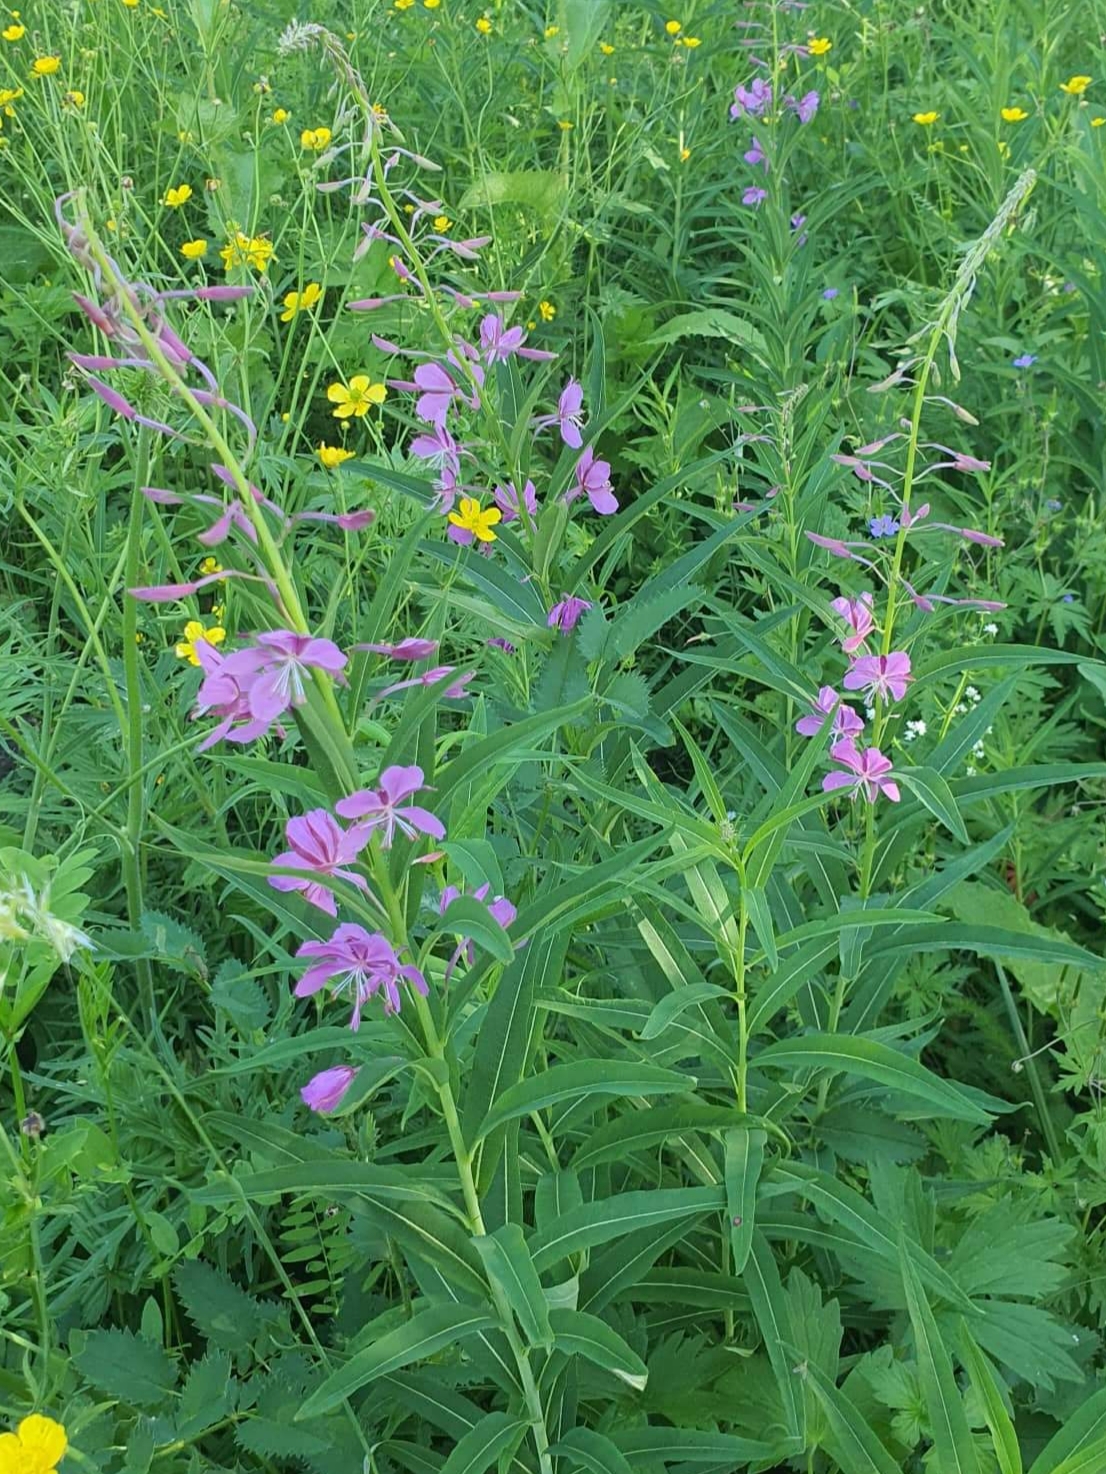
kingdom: Plantae
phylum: Tracheophyta
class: Magnoliopsida
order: Myrtales
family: Onagraceae
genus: Chamaenerion
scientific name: Chamaenerion angustifolium
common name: Fireweed
